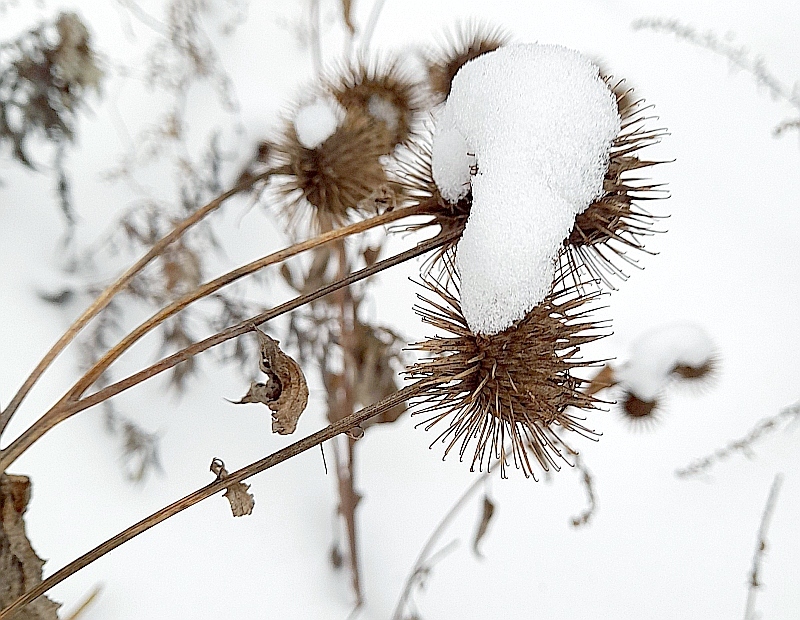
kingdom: Plantae
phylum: Tracheophyta
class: Magnoliopsida
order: Asterales
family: Asteraceae
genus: Arctium
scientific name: Arctium lappa
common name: Greater burdock
